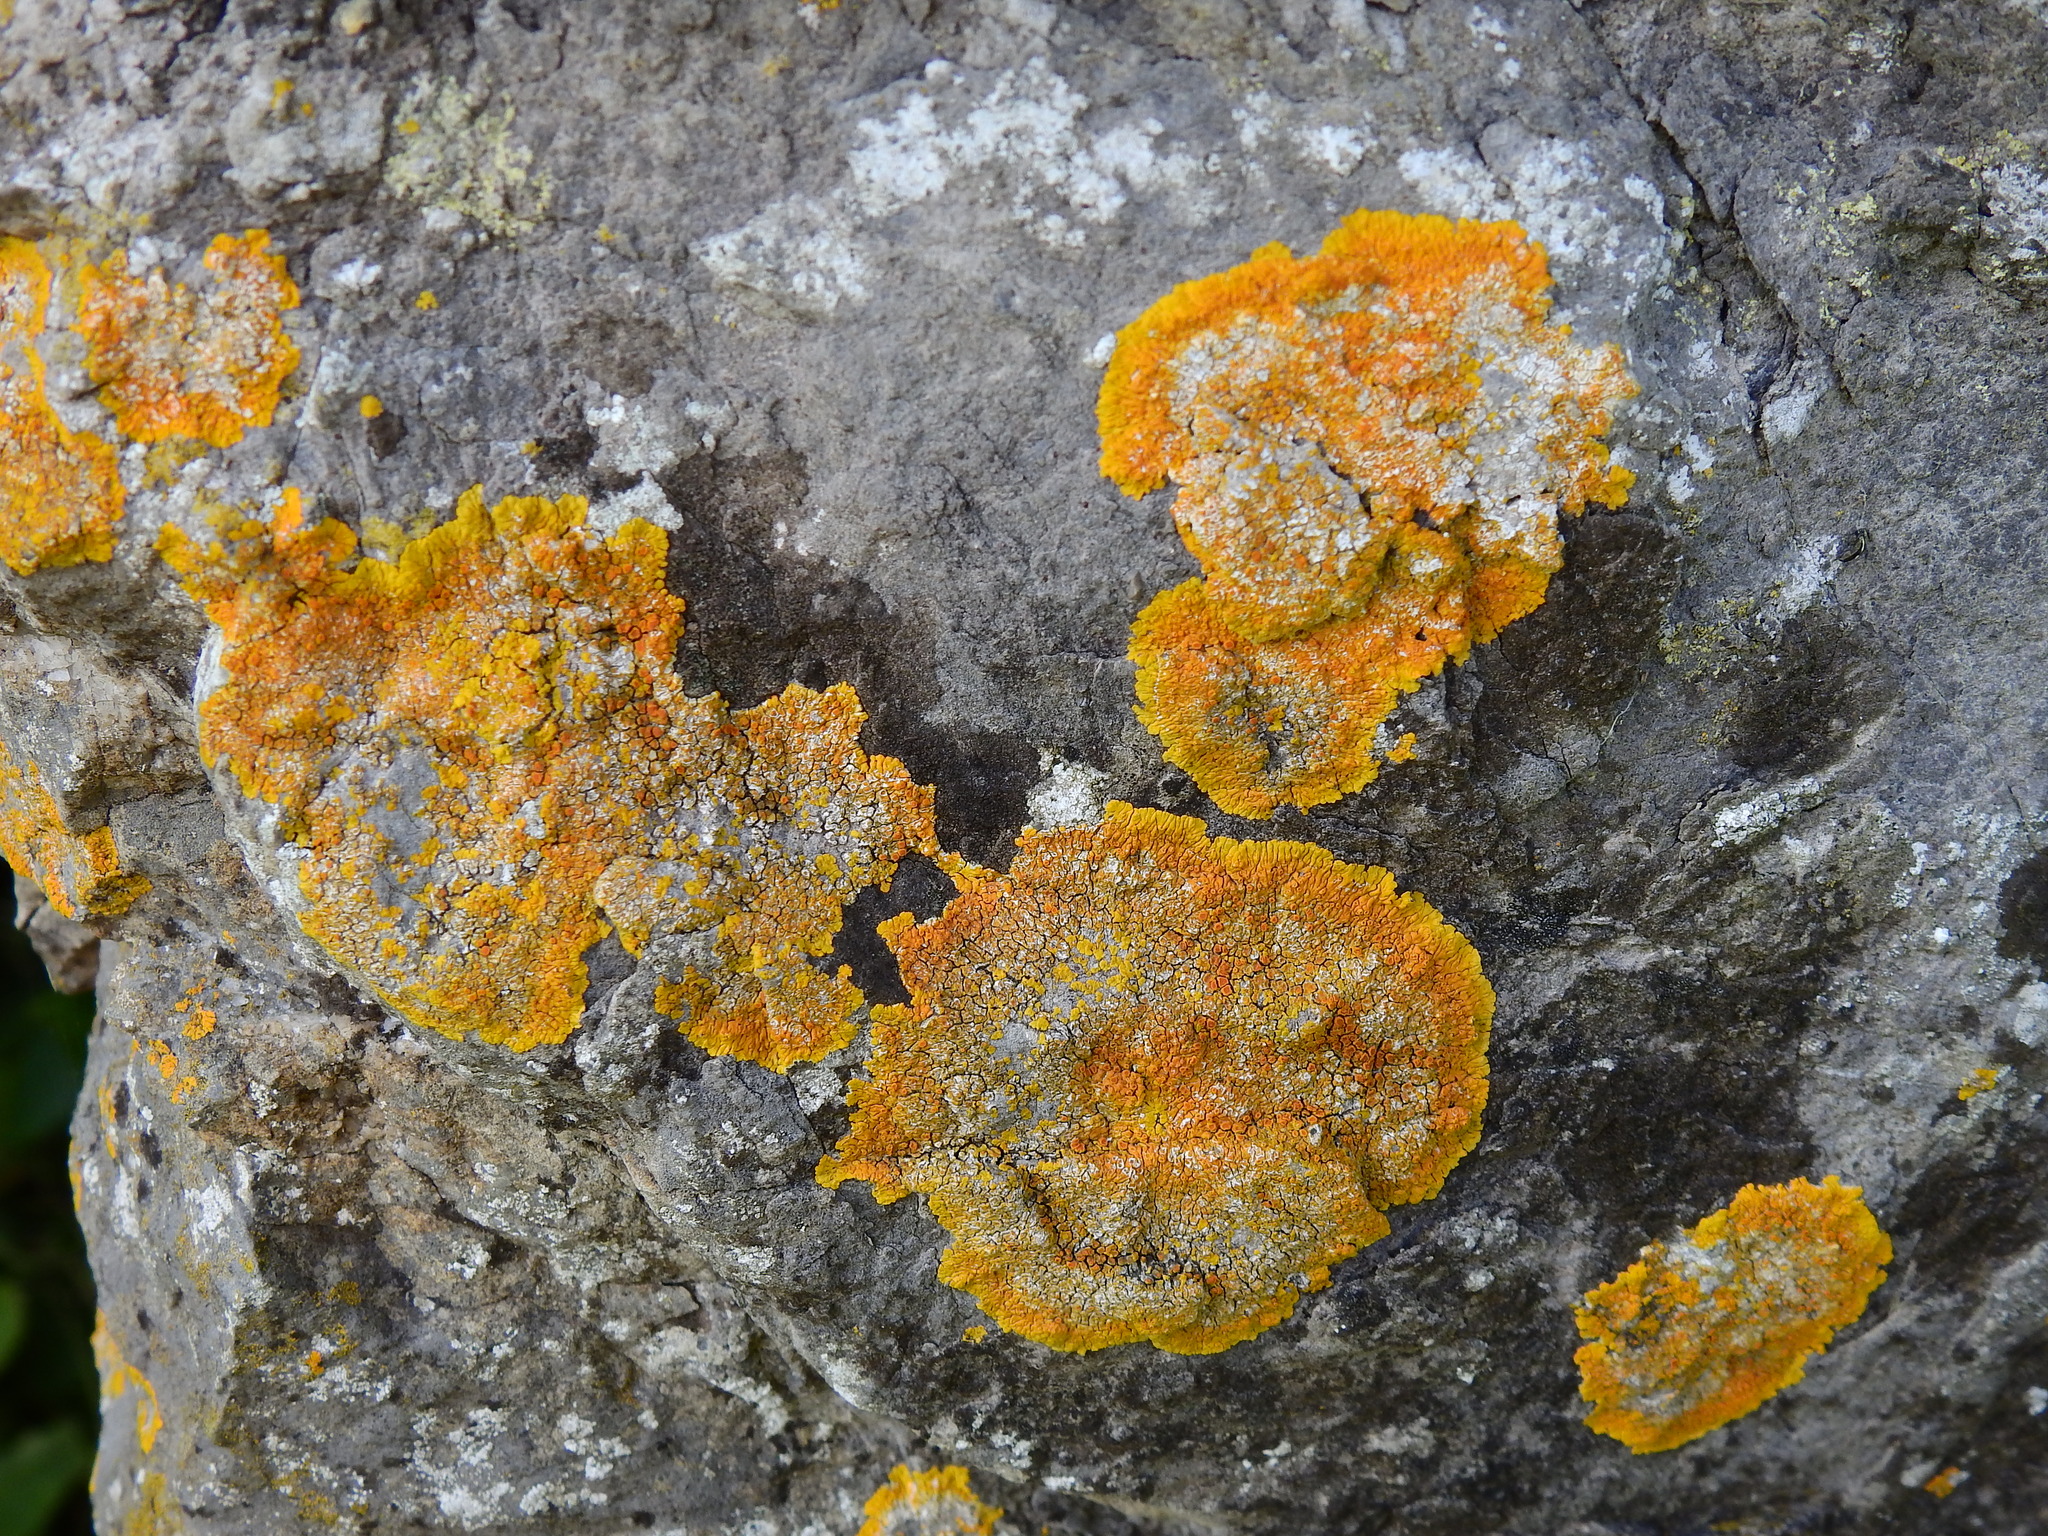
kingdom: Fungi
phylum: Ascomycota
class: Lecanoromycetes
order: Teloschistales
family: Teloschistaceae
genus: Calogaya
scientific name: Calogaya saxicola
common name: Rock jewel lichen
